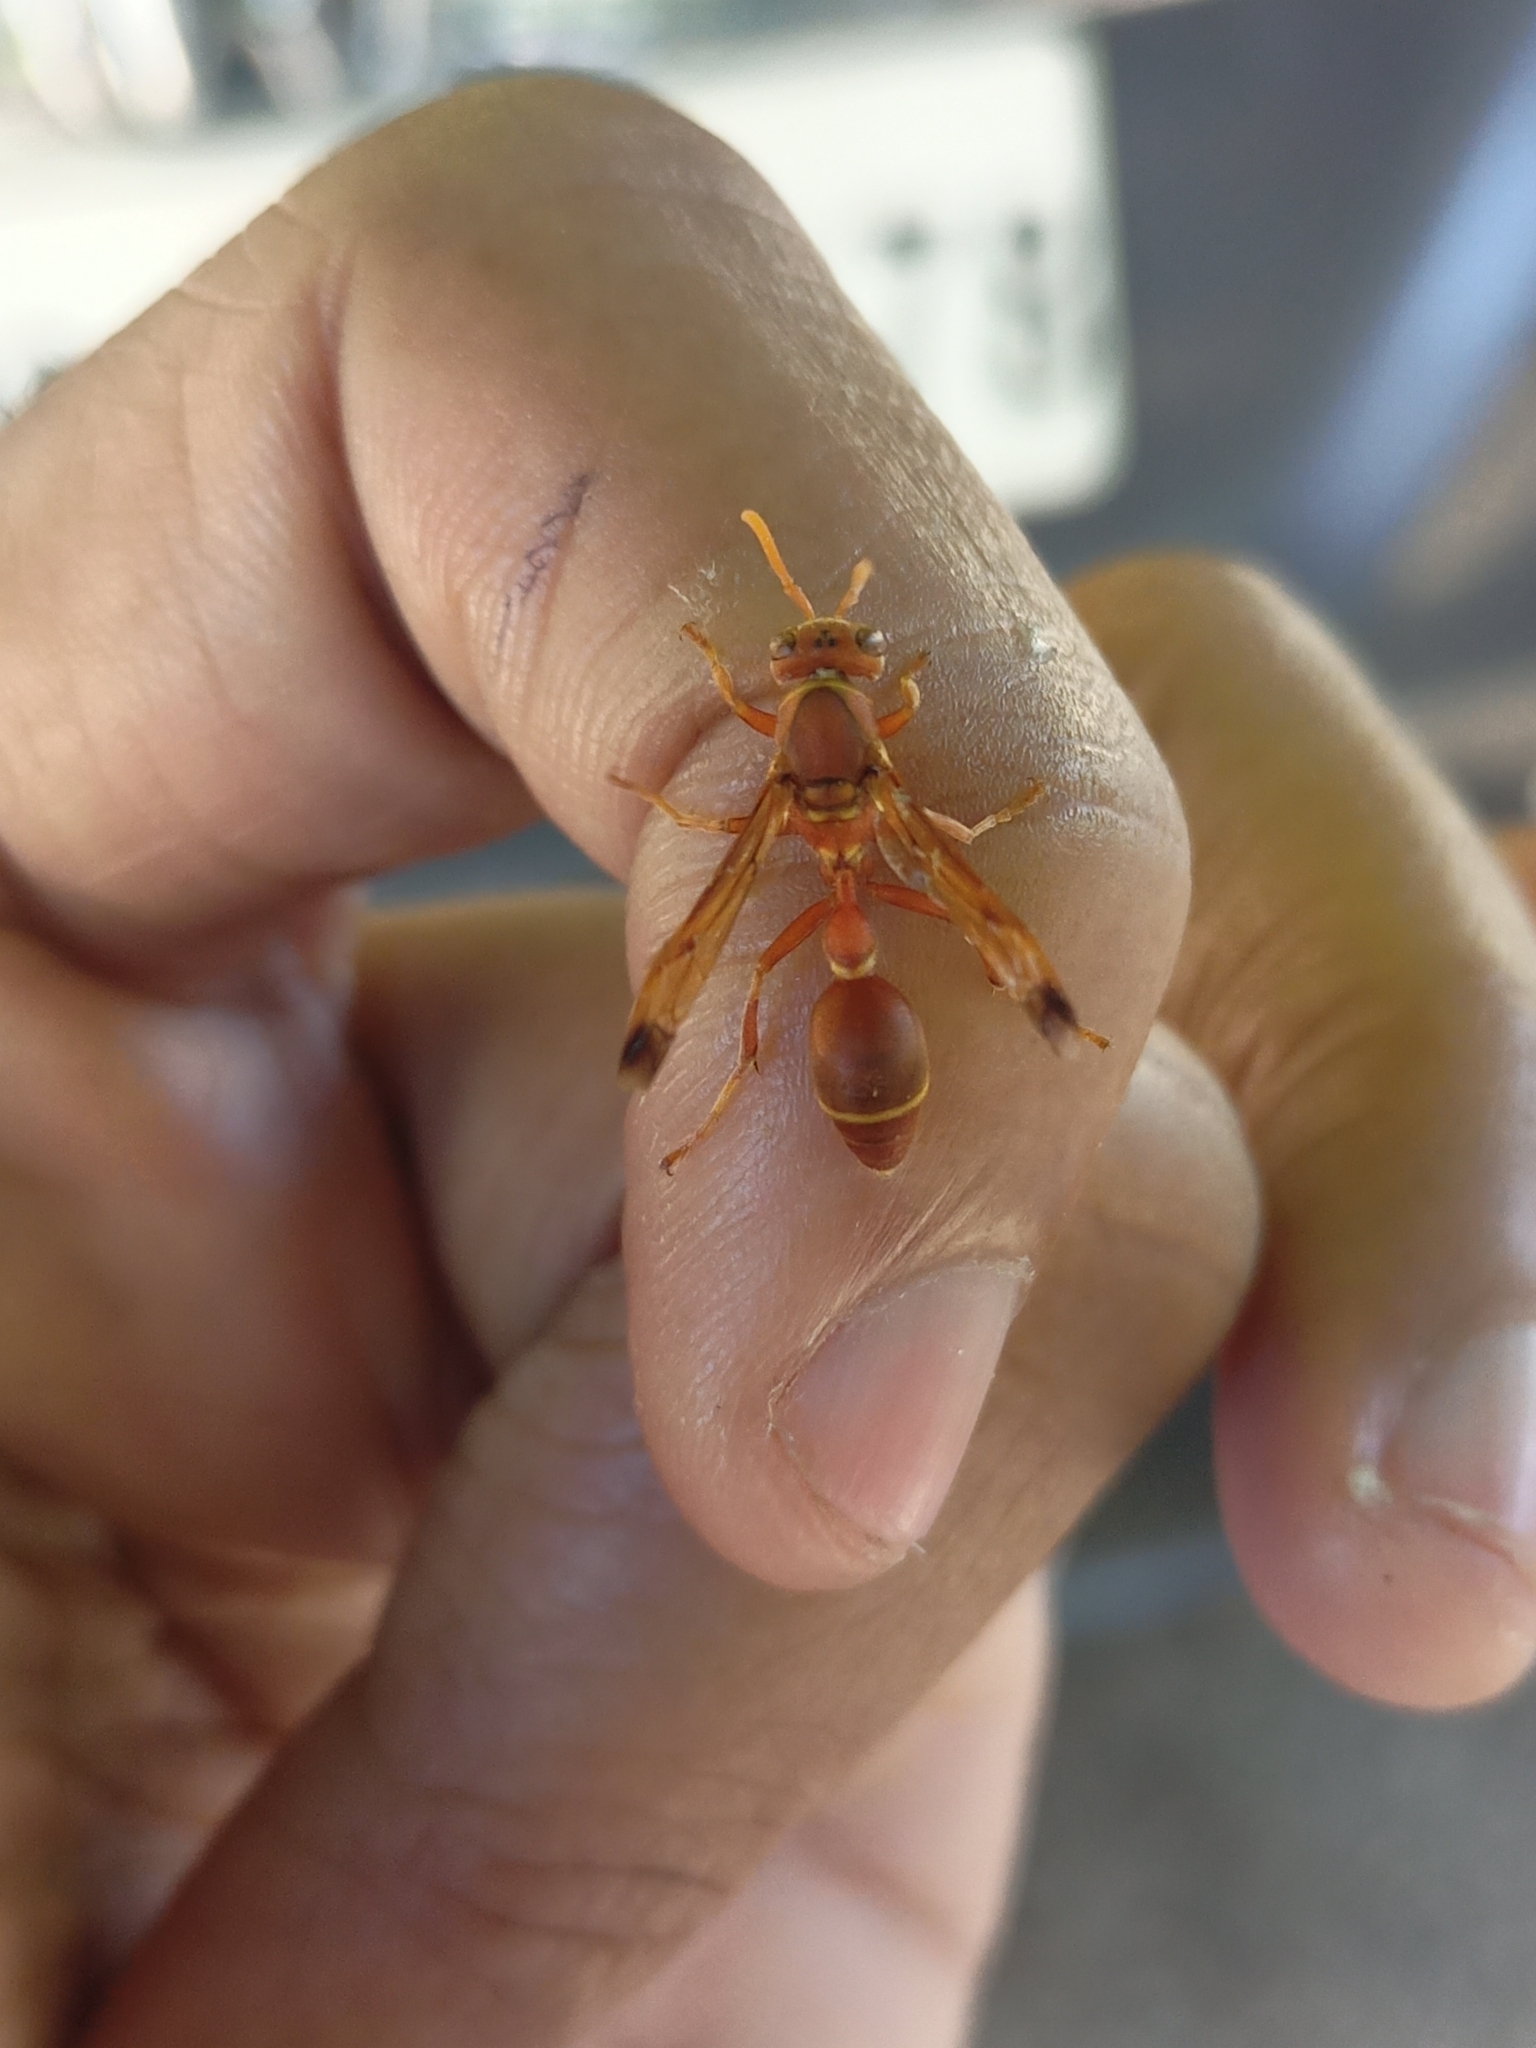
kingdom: Animalia
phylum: Arthropoda
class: Insecta
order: Hymenoptera
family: Vespidae
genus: Ropalidia
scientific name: Ropalidia marginata
